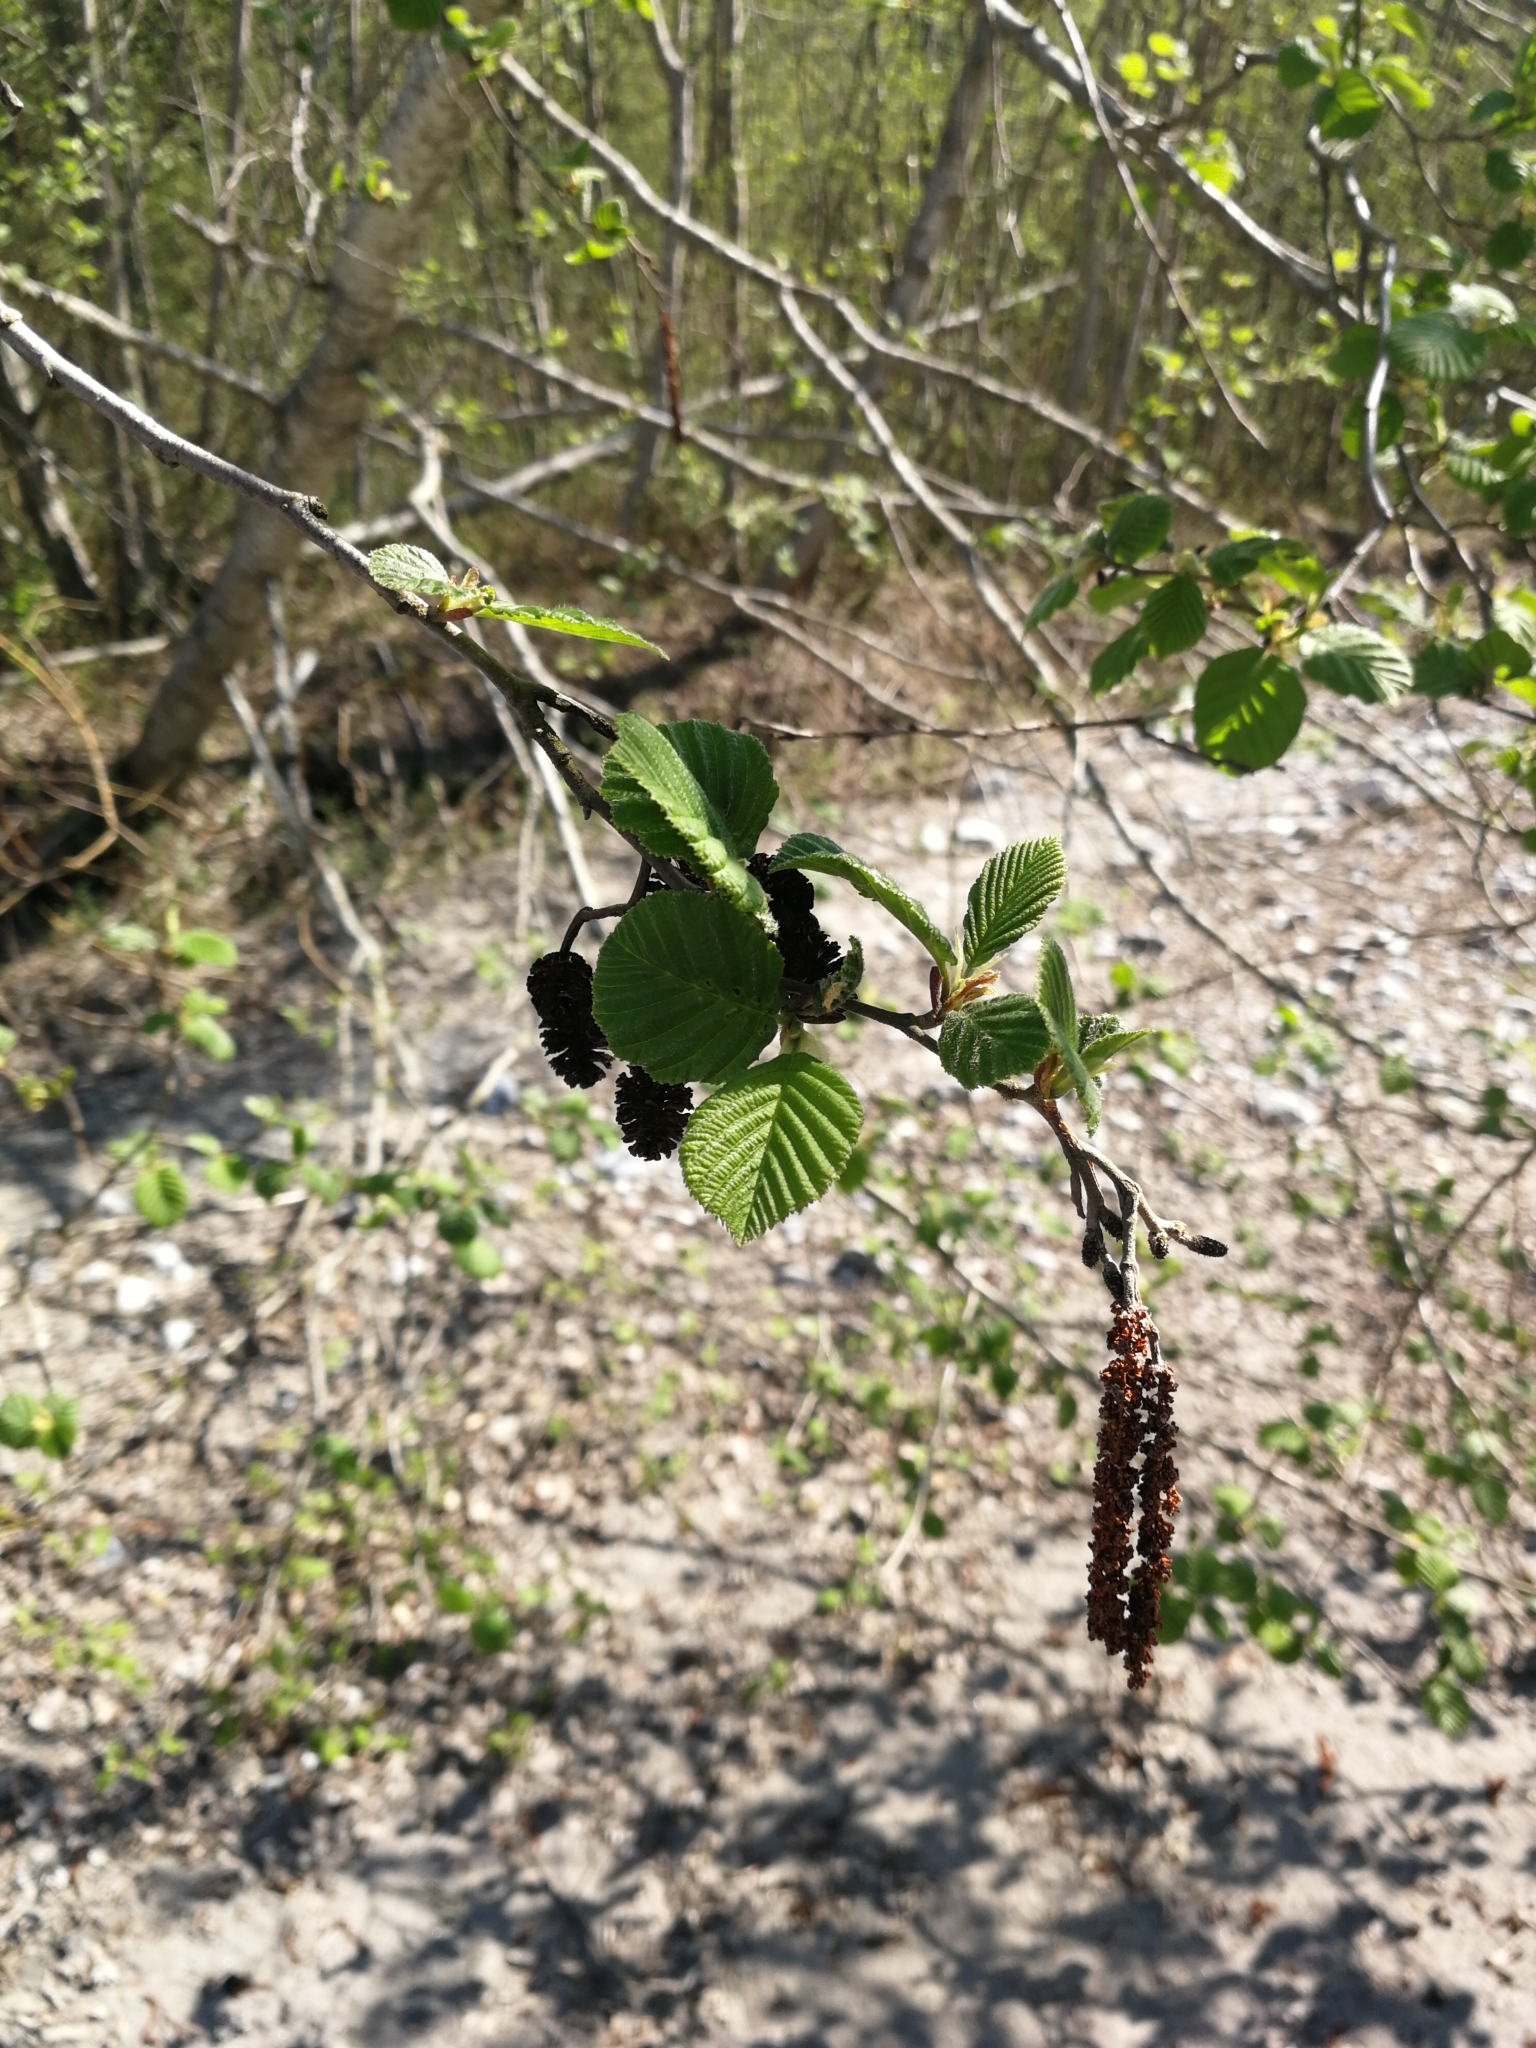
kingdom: Plantae
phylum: Tracheophyta
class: Magnoliopsida
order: Fagales
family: Betulaceae
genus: Alnus
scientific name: Alnus incana
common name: Grey alder
